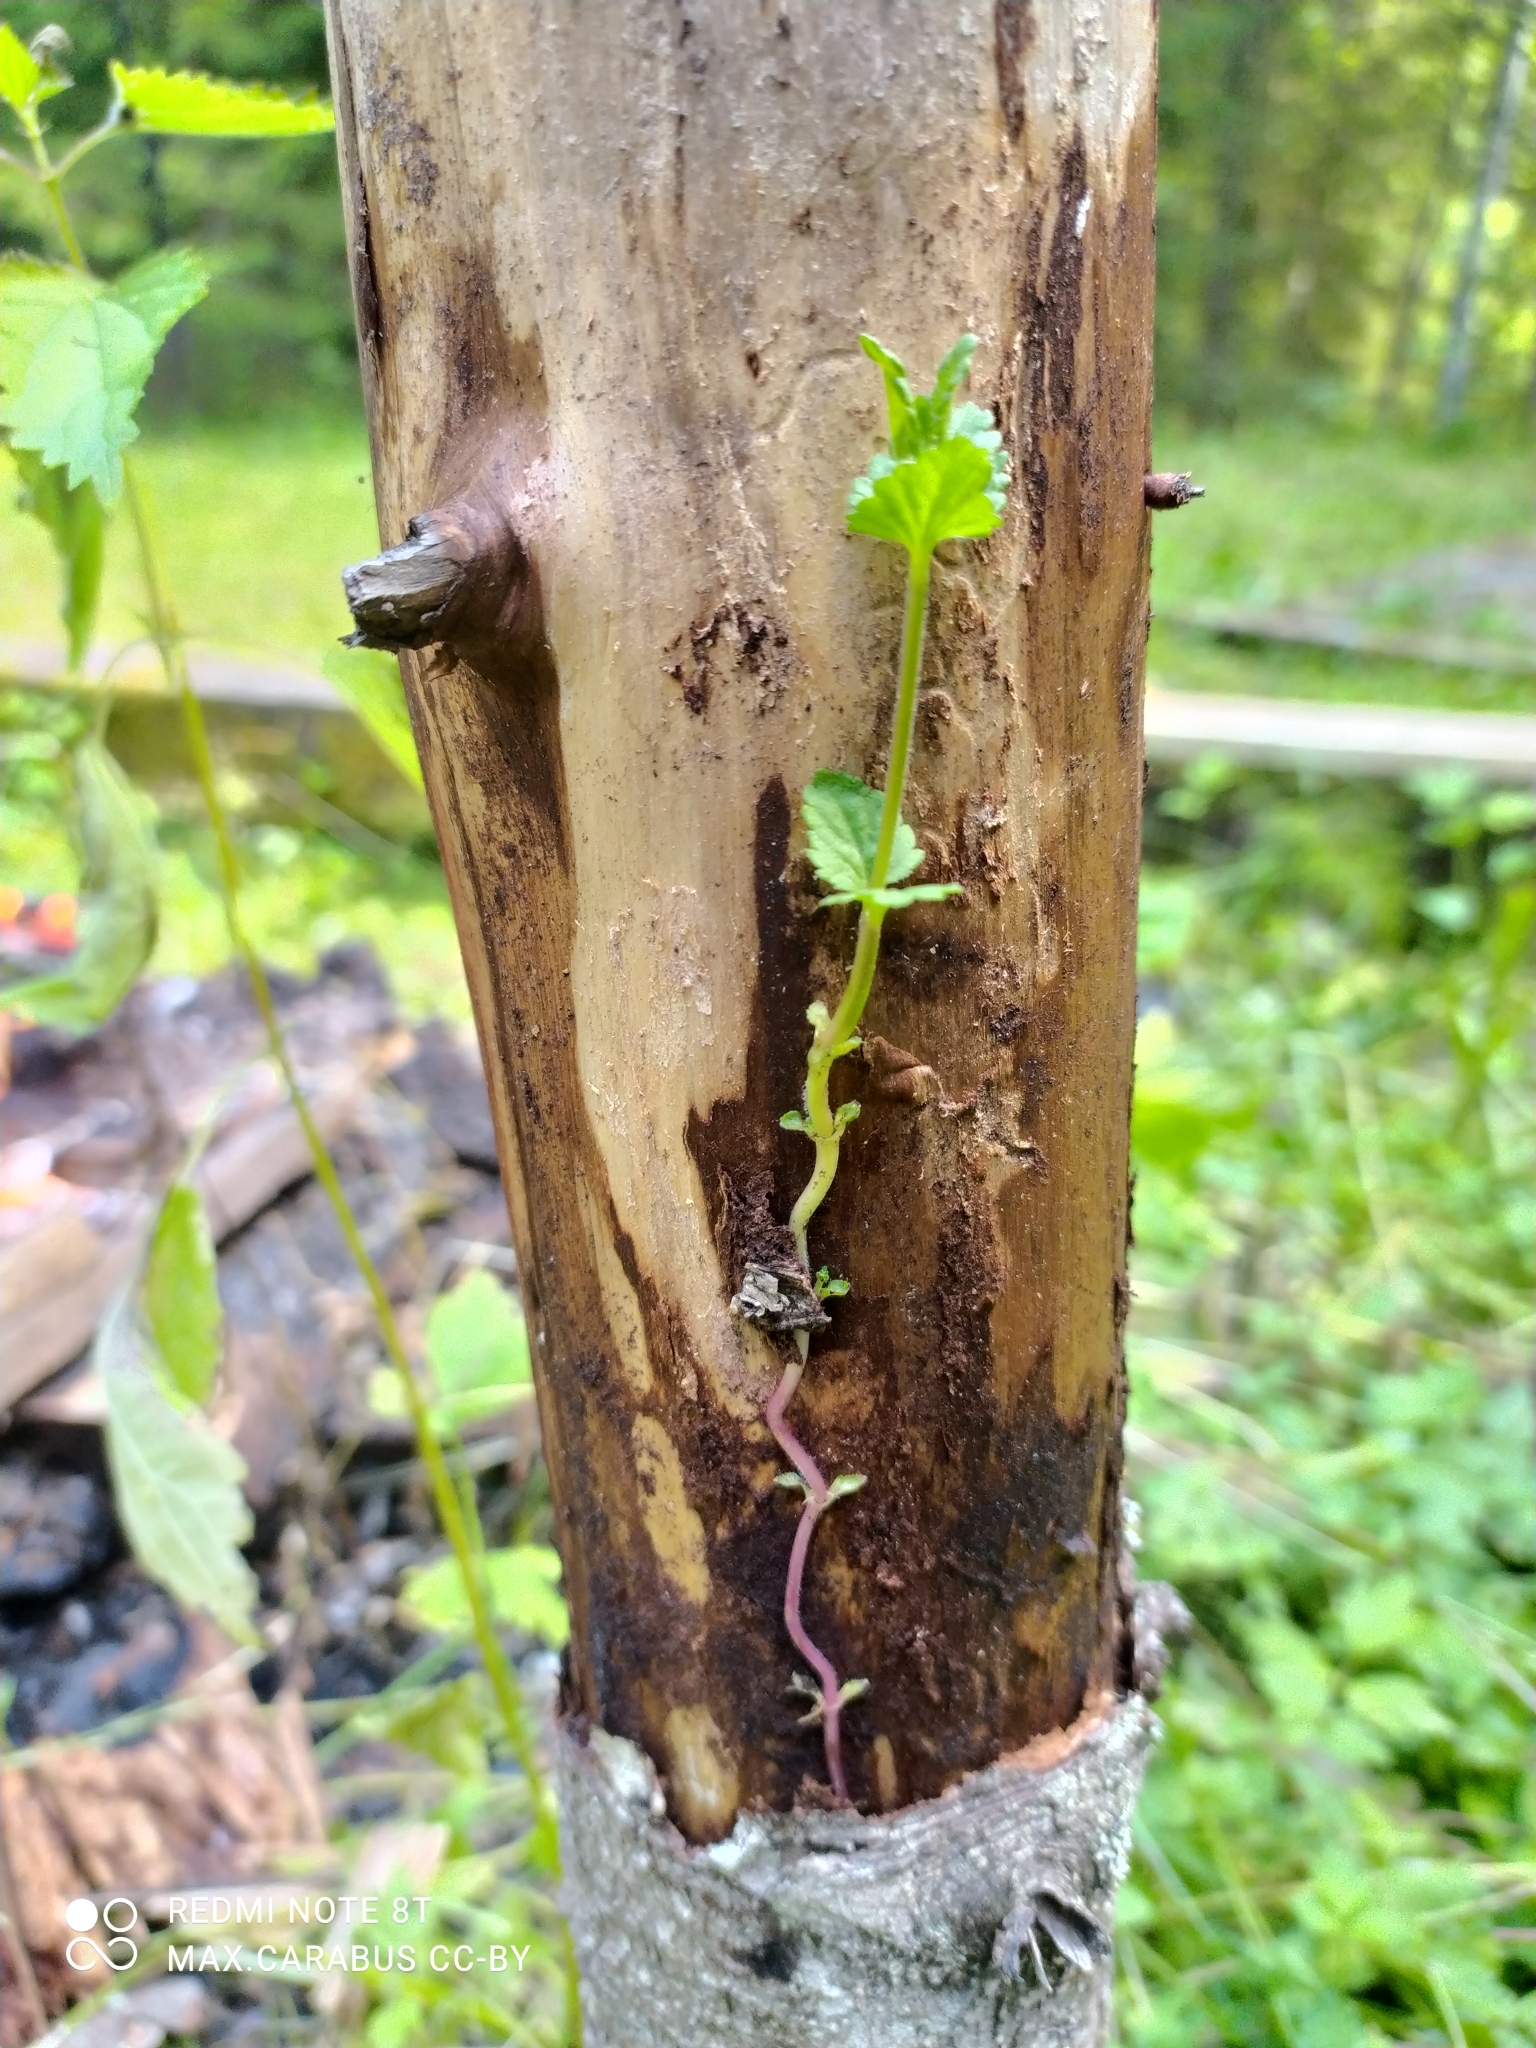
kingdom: Plantae
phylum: Tracheophyta
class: Magnoliopsida
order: Lamiales
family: Lamiaceae
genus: Glechoma
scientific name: Glechoma hederacea
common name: Ground ivy
